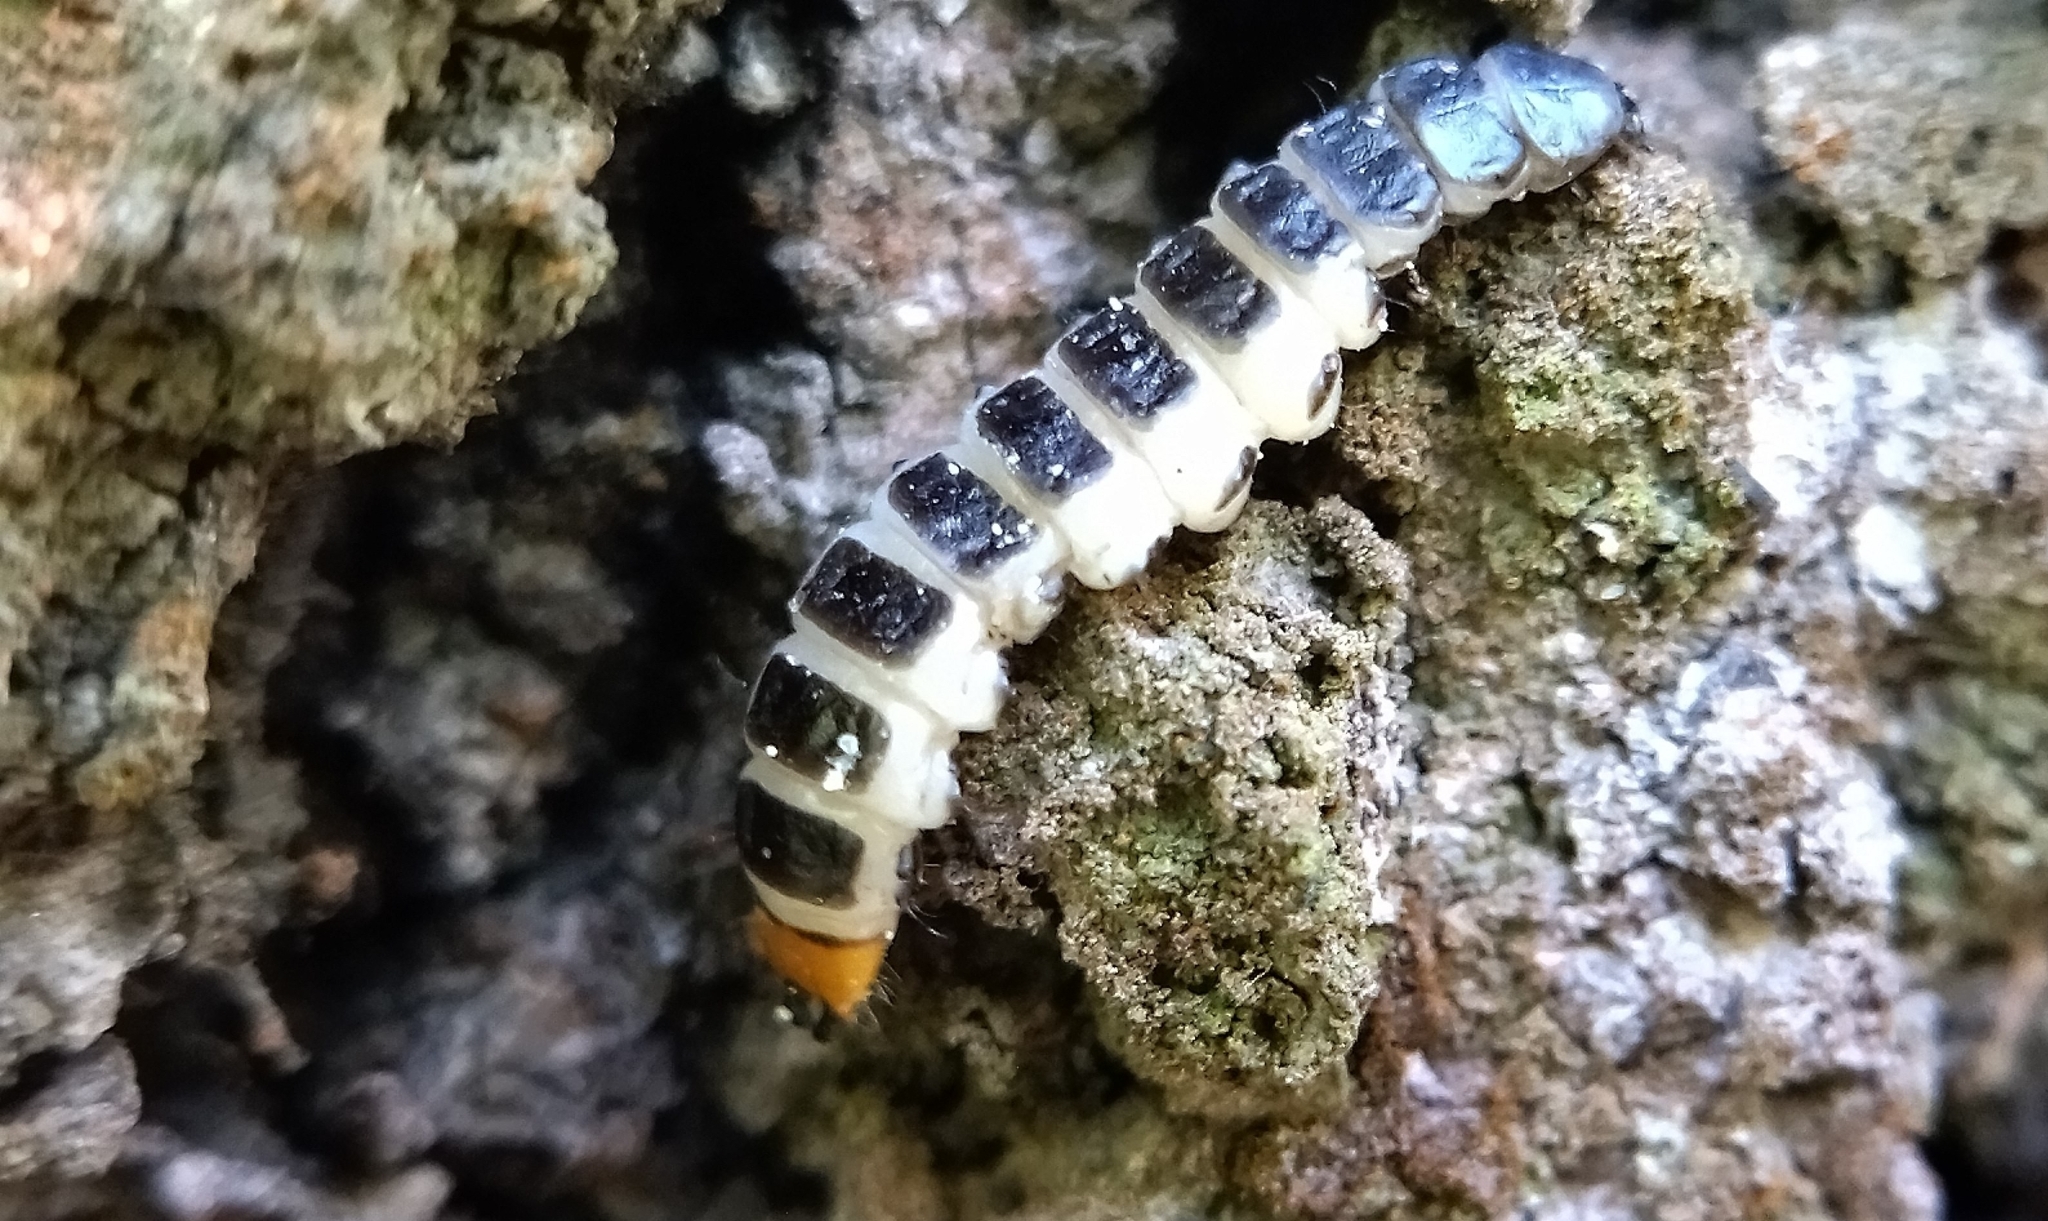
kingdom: Animalia
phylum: Arthropoda
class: Insecta
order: Coleoptera
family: Lycidae
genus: Lygistopterus
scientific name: Lygistopterus sanguineus
